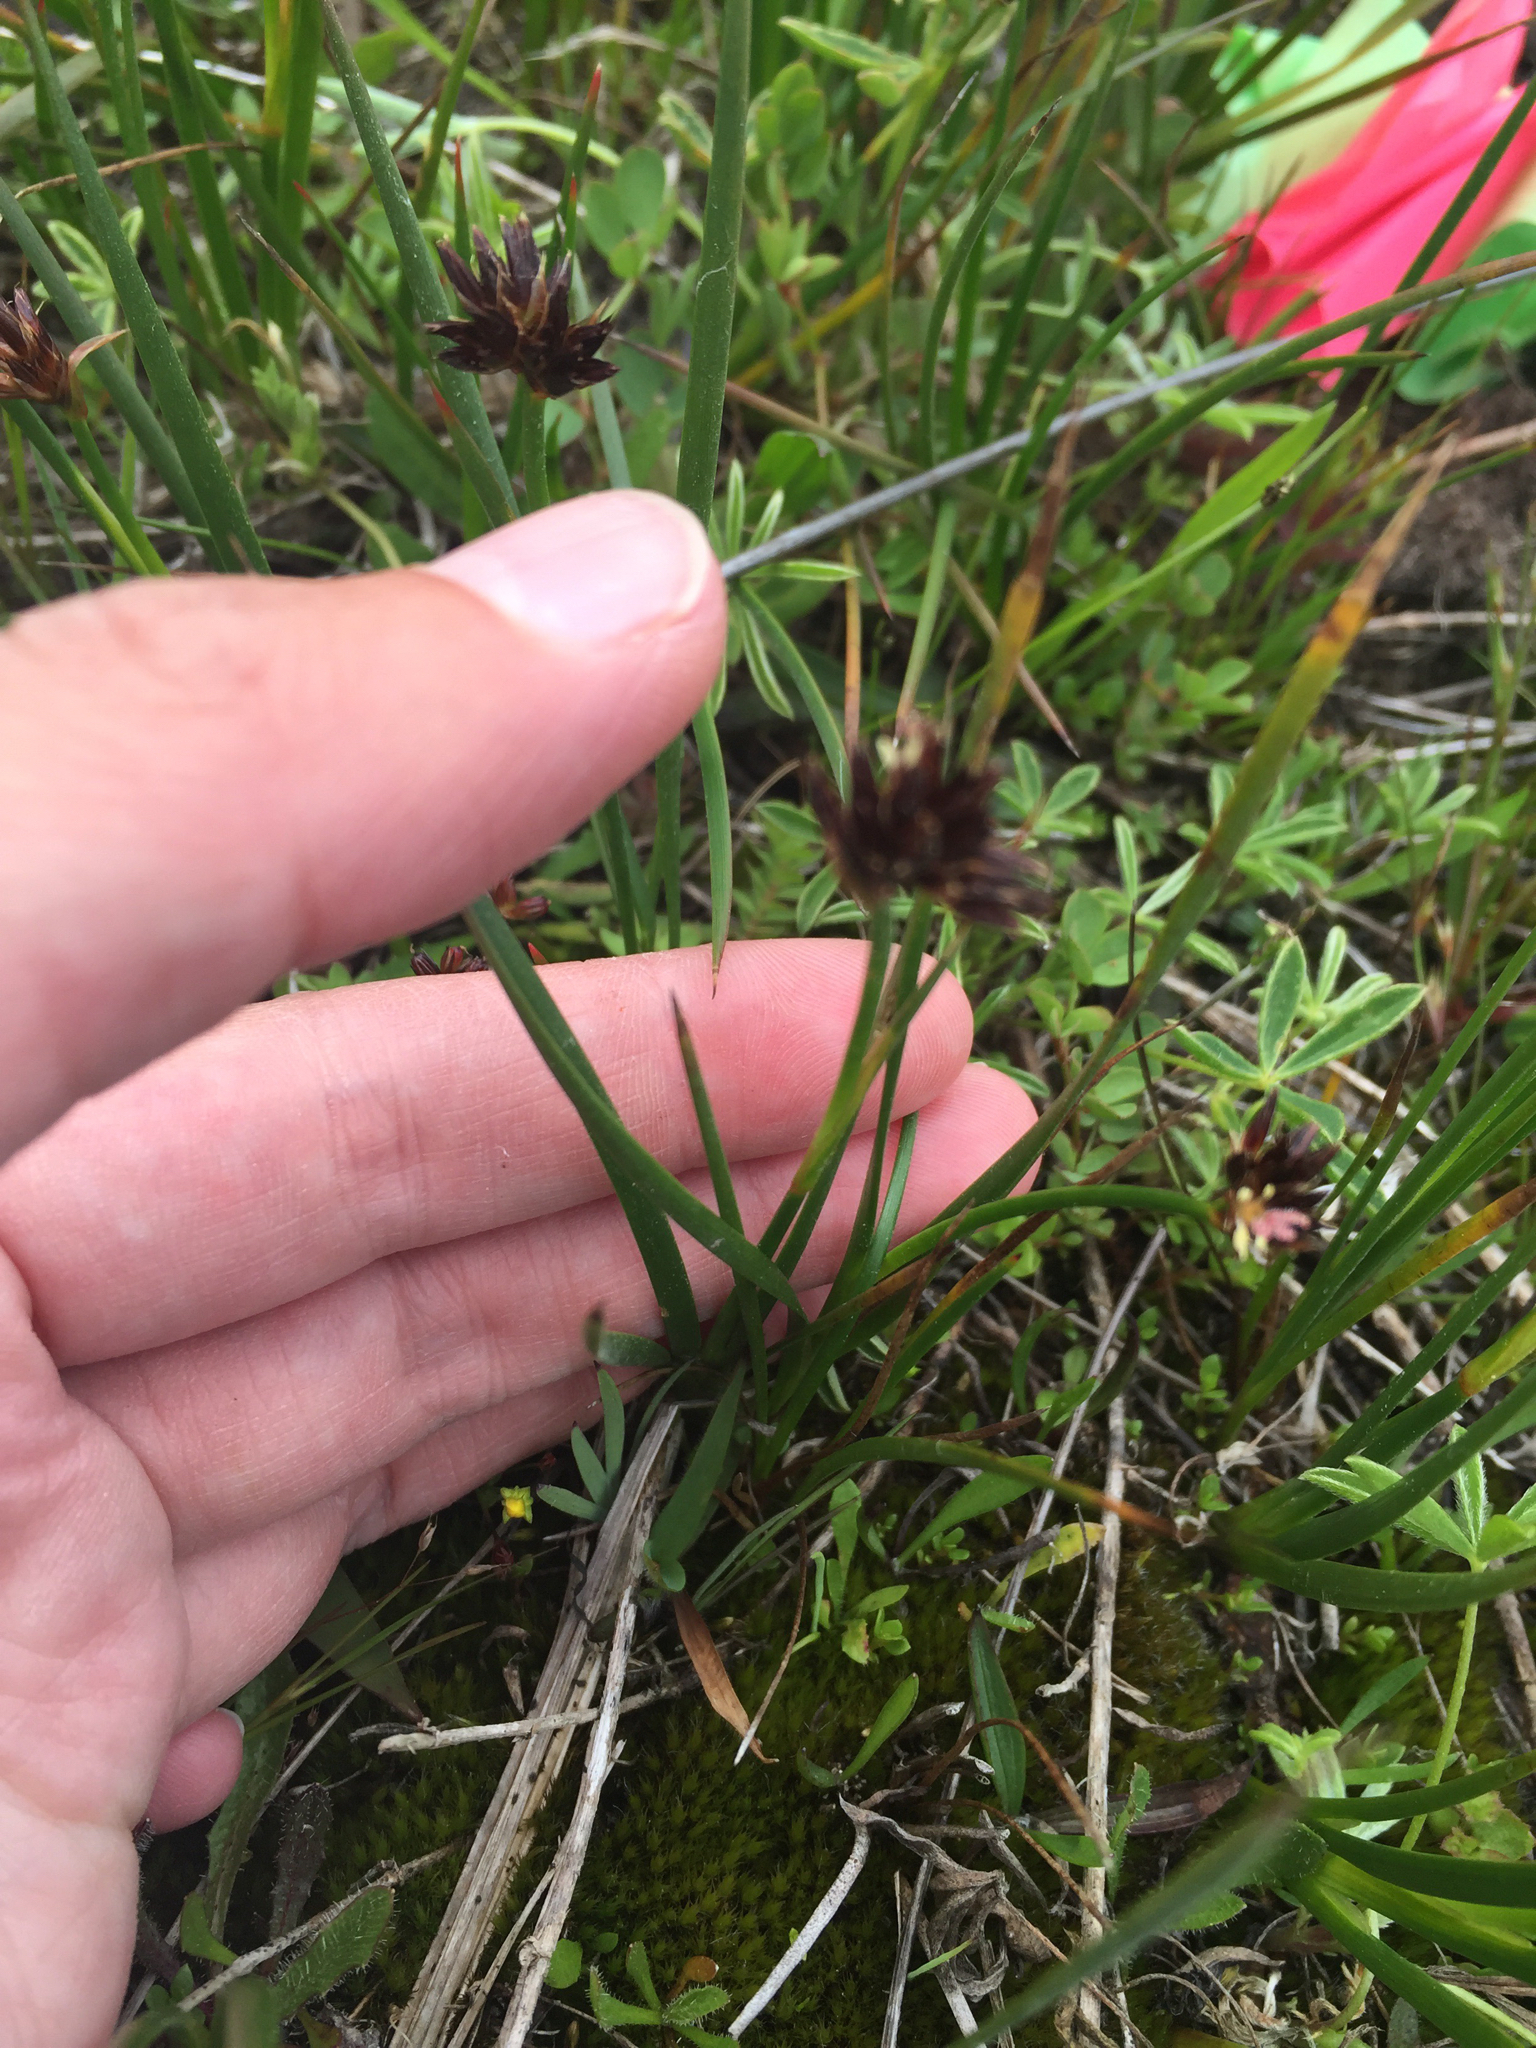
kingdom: Plantae
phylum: Tracheophyta
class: Liliopsida
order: Poales
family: Juncaceae
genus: Juncus
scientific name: Juncus phaeocephalus
